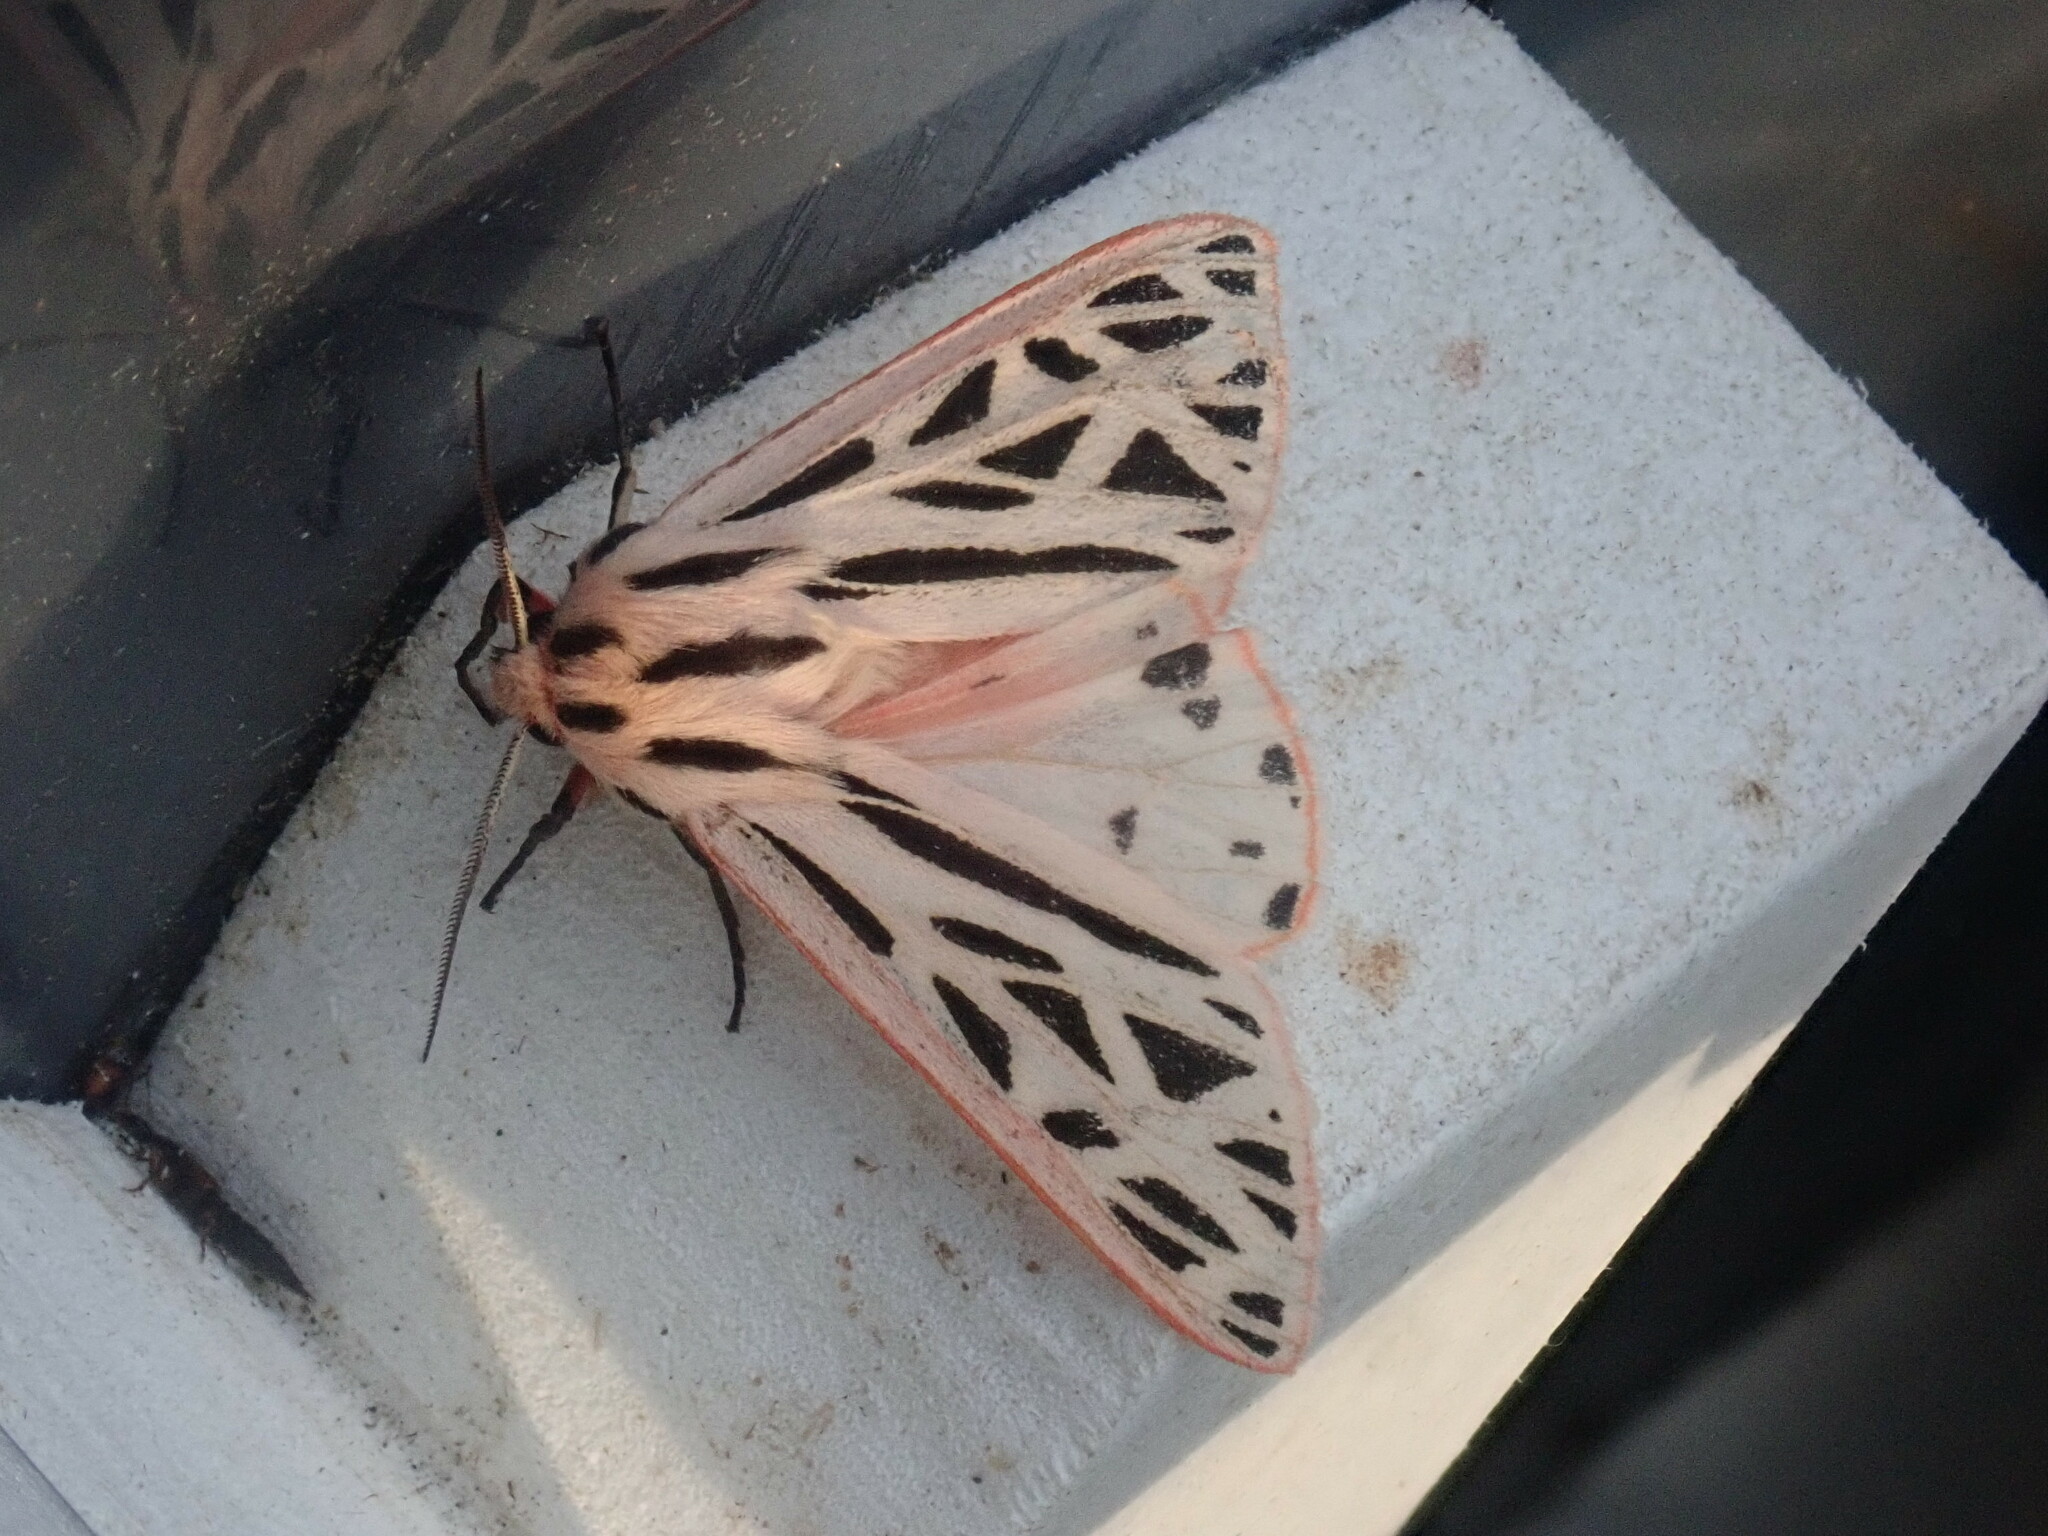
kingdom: Animalia
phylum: Arthropoda
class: Insecta
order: Lepidoptera
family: Erebidae
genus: Apantesis
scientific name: Apantesis arge
